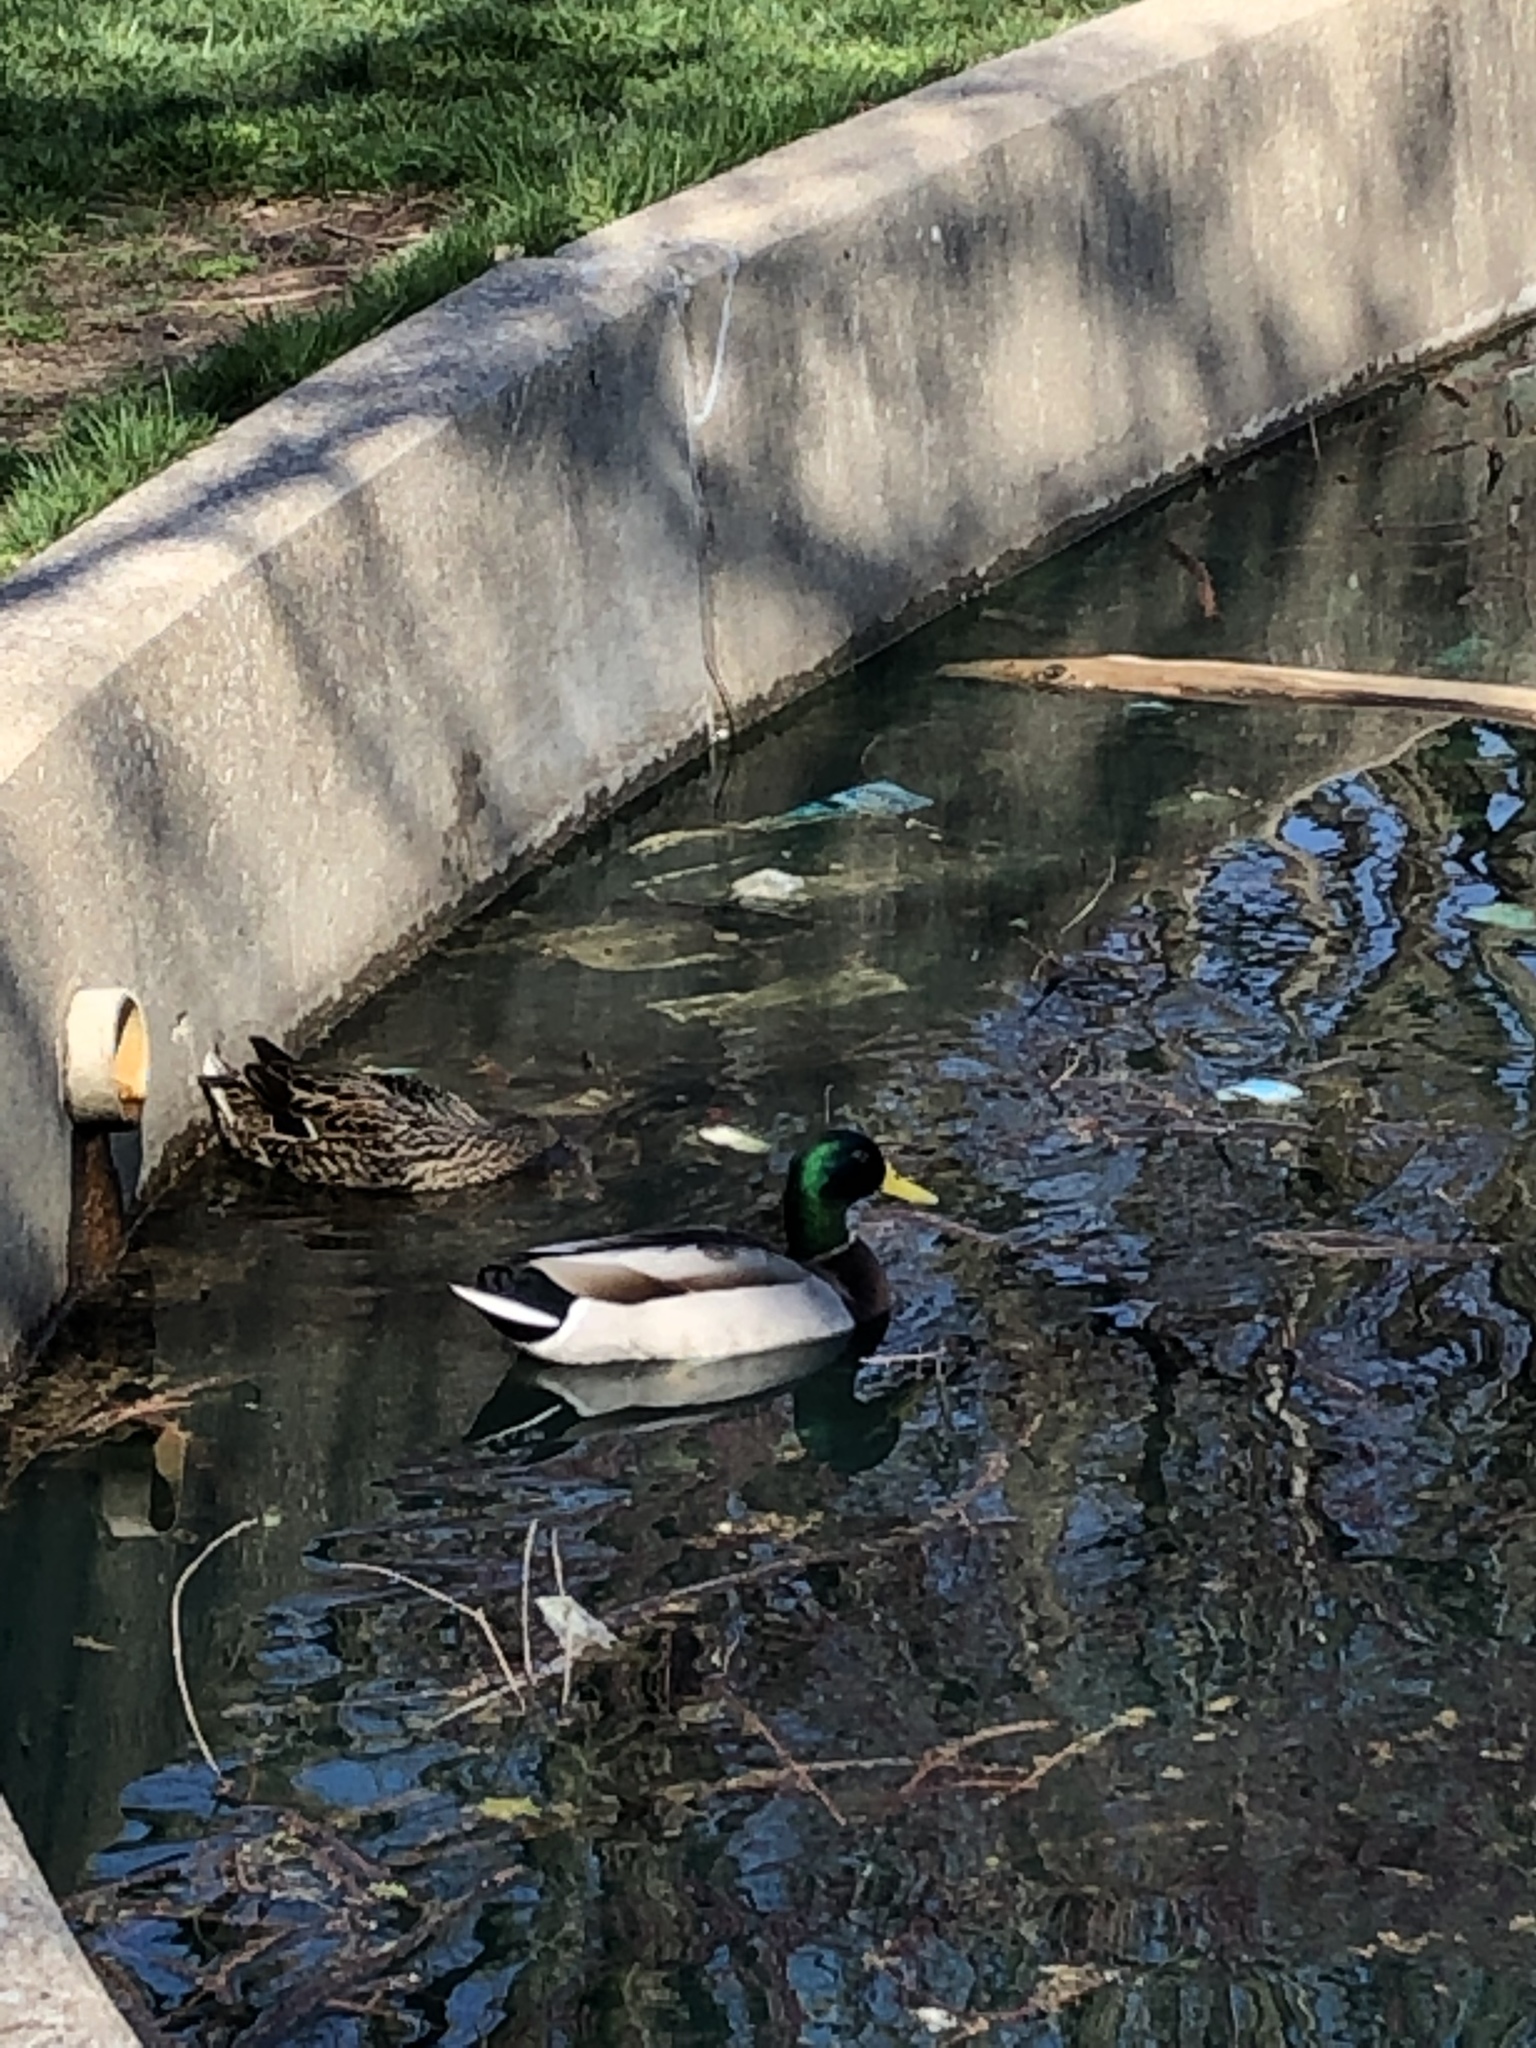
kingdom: Animalia
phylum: Chordata
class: Aves
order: Anseriformes
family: Anatidae
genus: Anas
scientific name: Anas platyrhynchos
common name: Mallard
